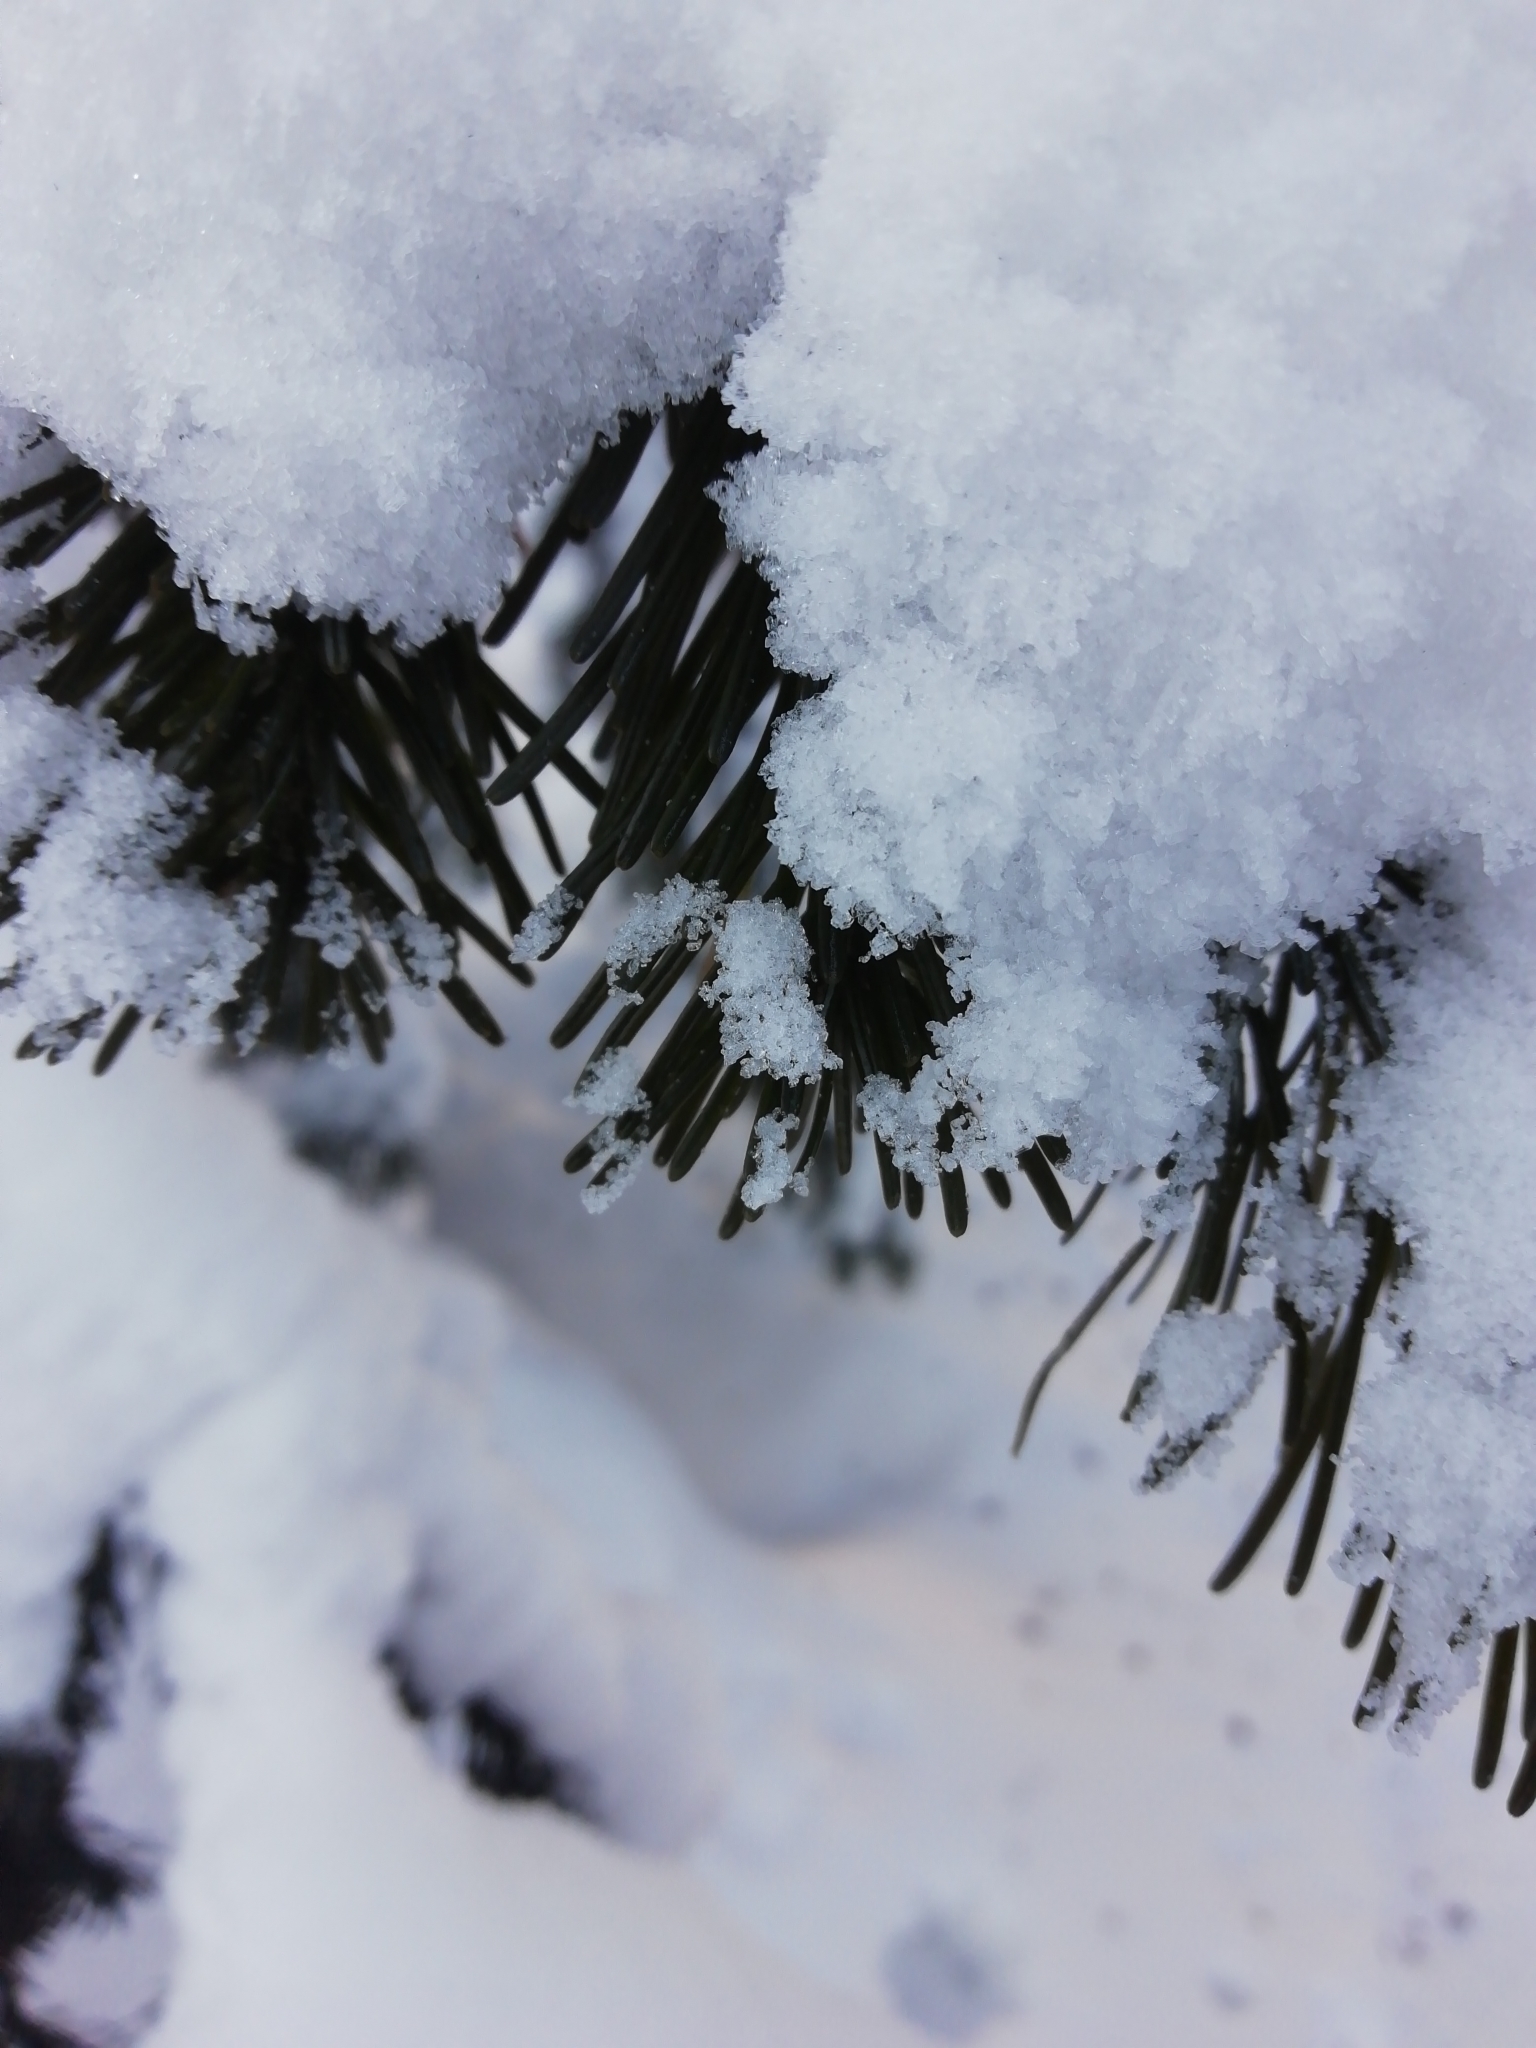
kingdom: Plantae
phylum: Tracheophyta
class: Pinopsida
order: Pinales
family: Pinaceae
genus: Abies
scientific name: Abies sibirica
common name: Siberian fir
